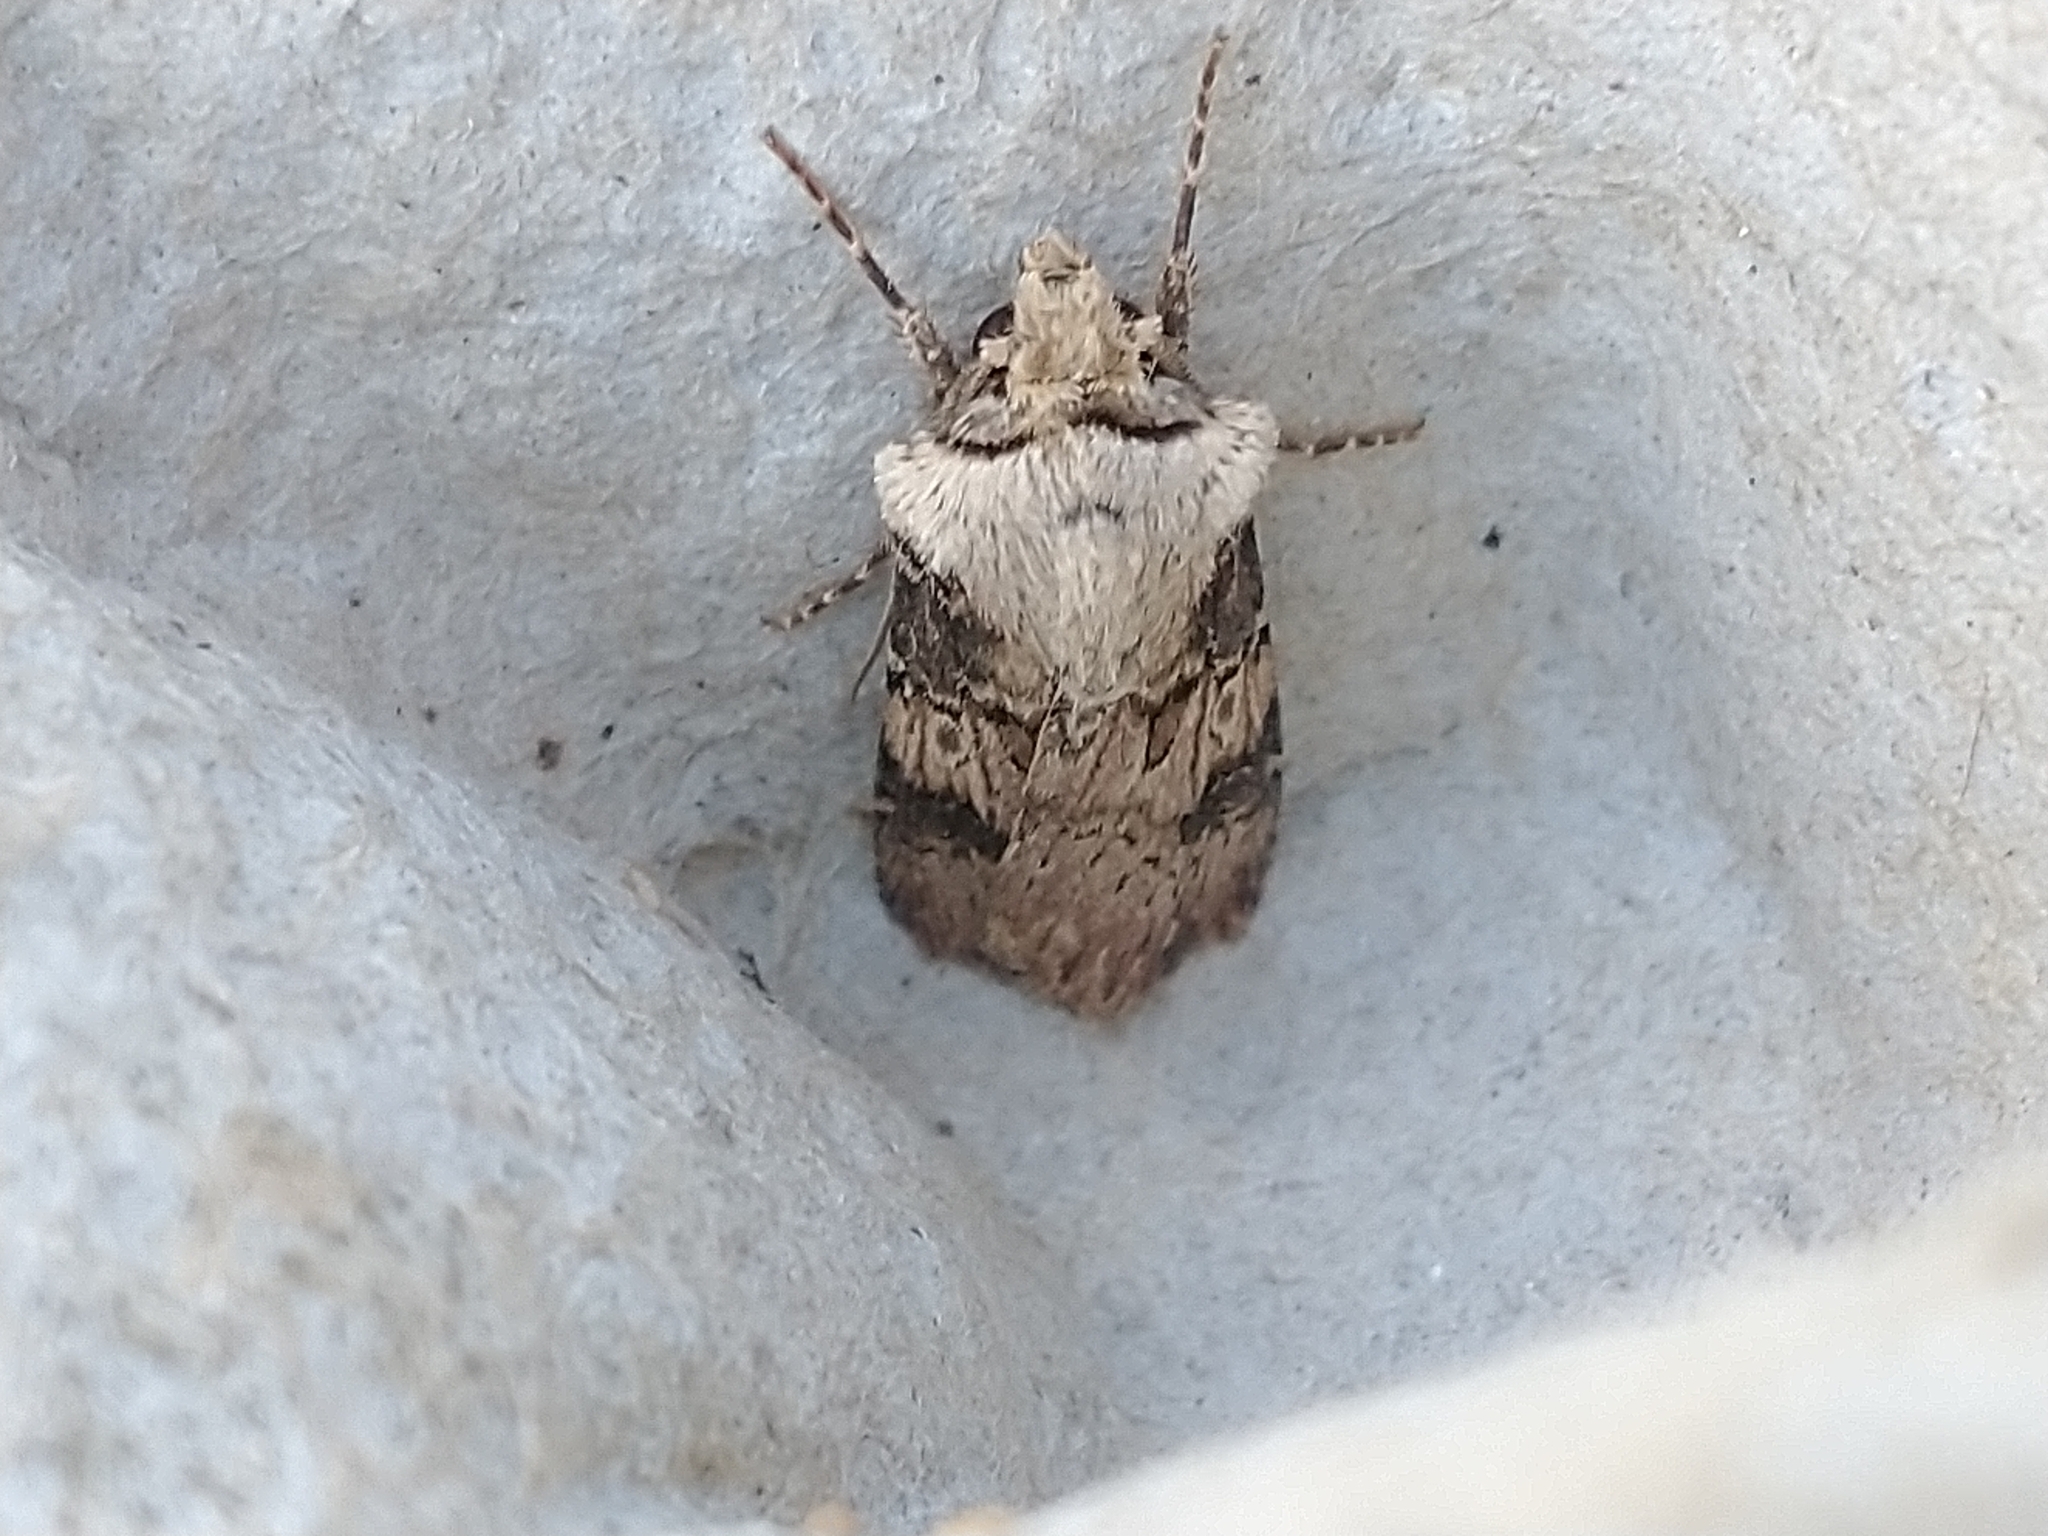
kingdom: Animalia
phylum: Arthropoda
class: Insecta
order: Lepidoptera
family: Noctuidae
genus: Agrotis
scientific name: Agrotis puta
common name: Shuttle-shaped dart
